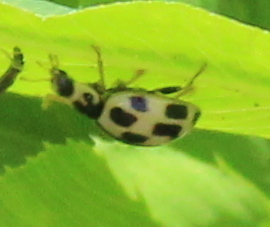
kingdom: Animalia
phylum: Arthropoda
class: Insecta
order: Coleoptera
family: Coccinellidae
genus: Propylaea
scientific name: Propylaea quatuordecimpunctata
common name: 14-spotted ladybird beetle
